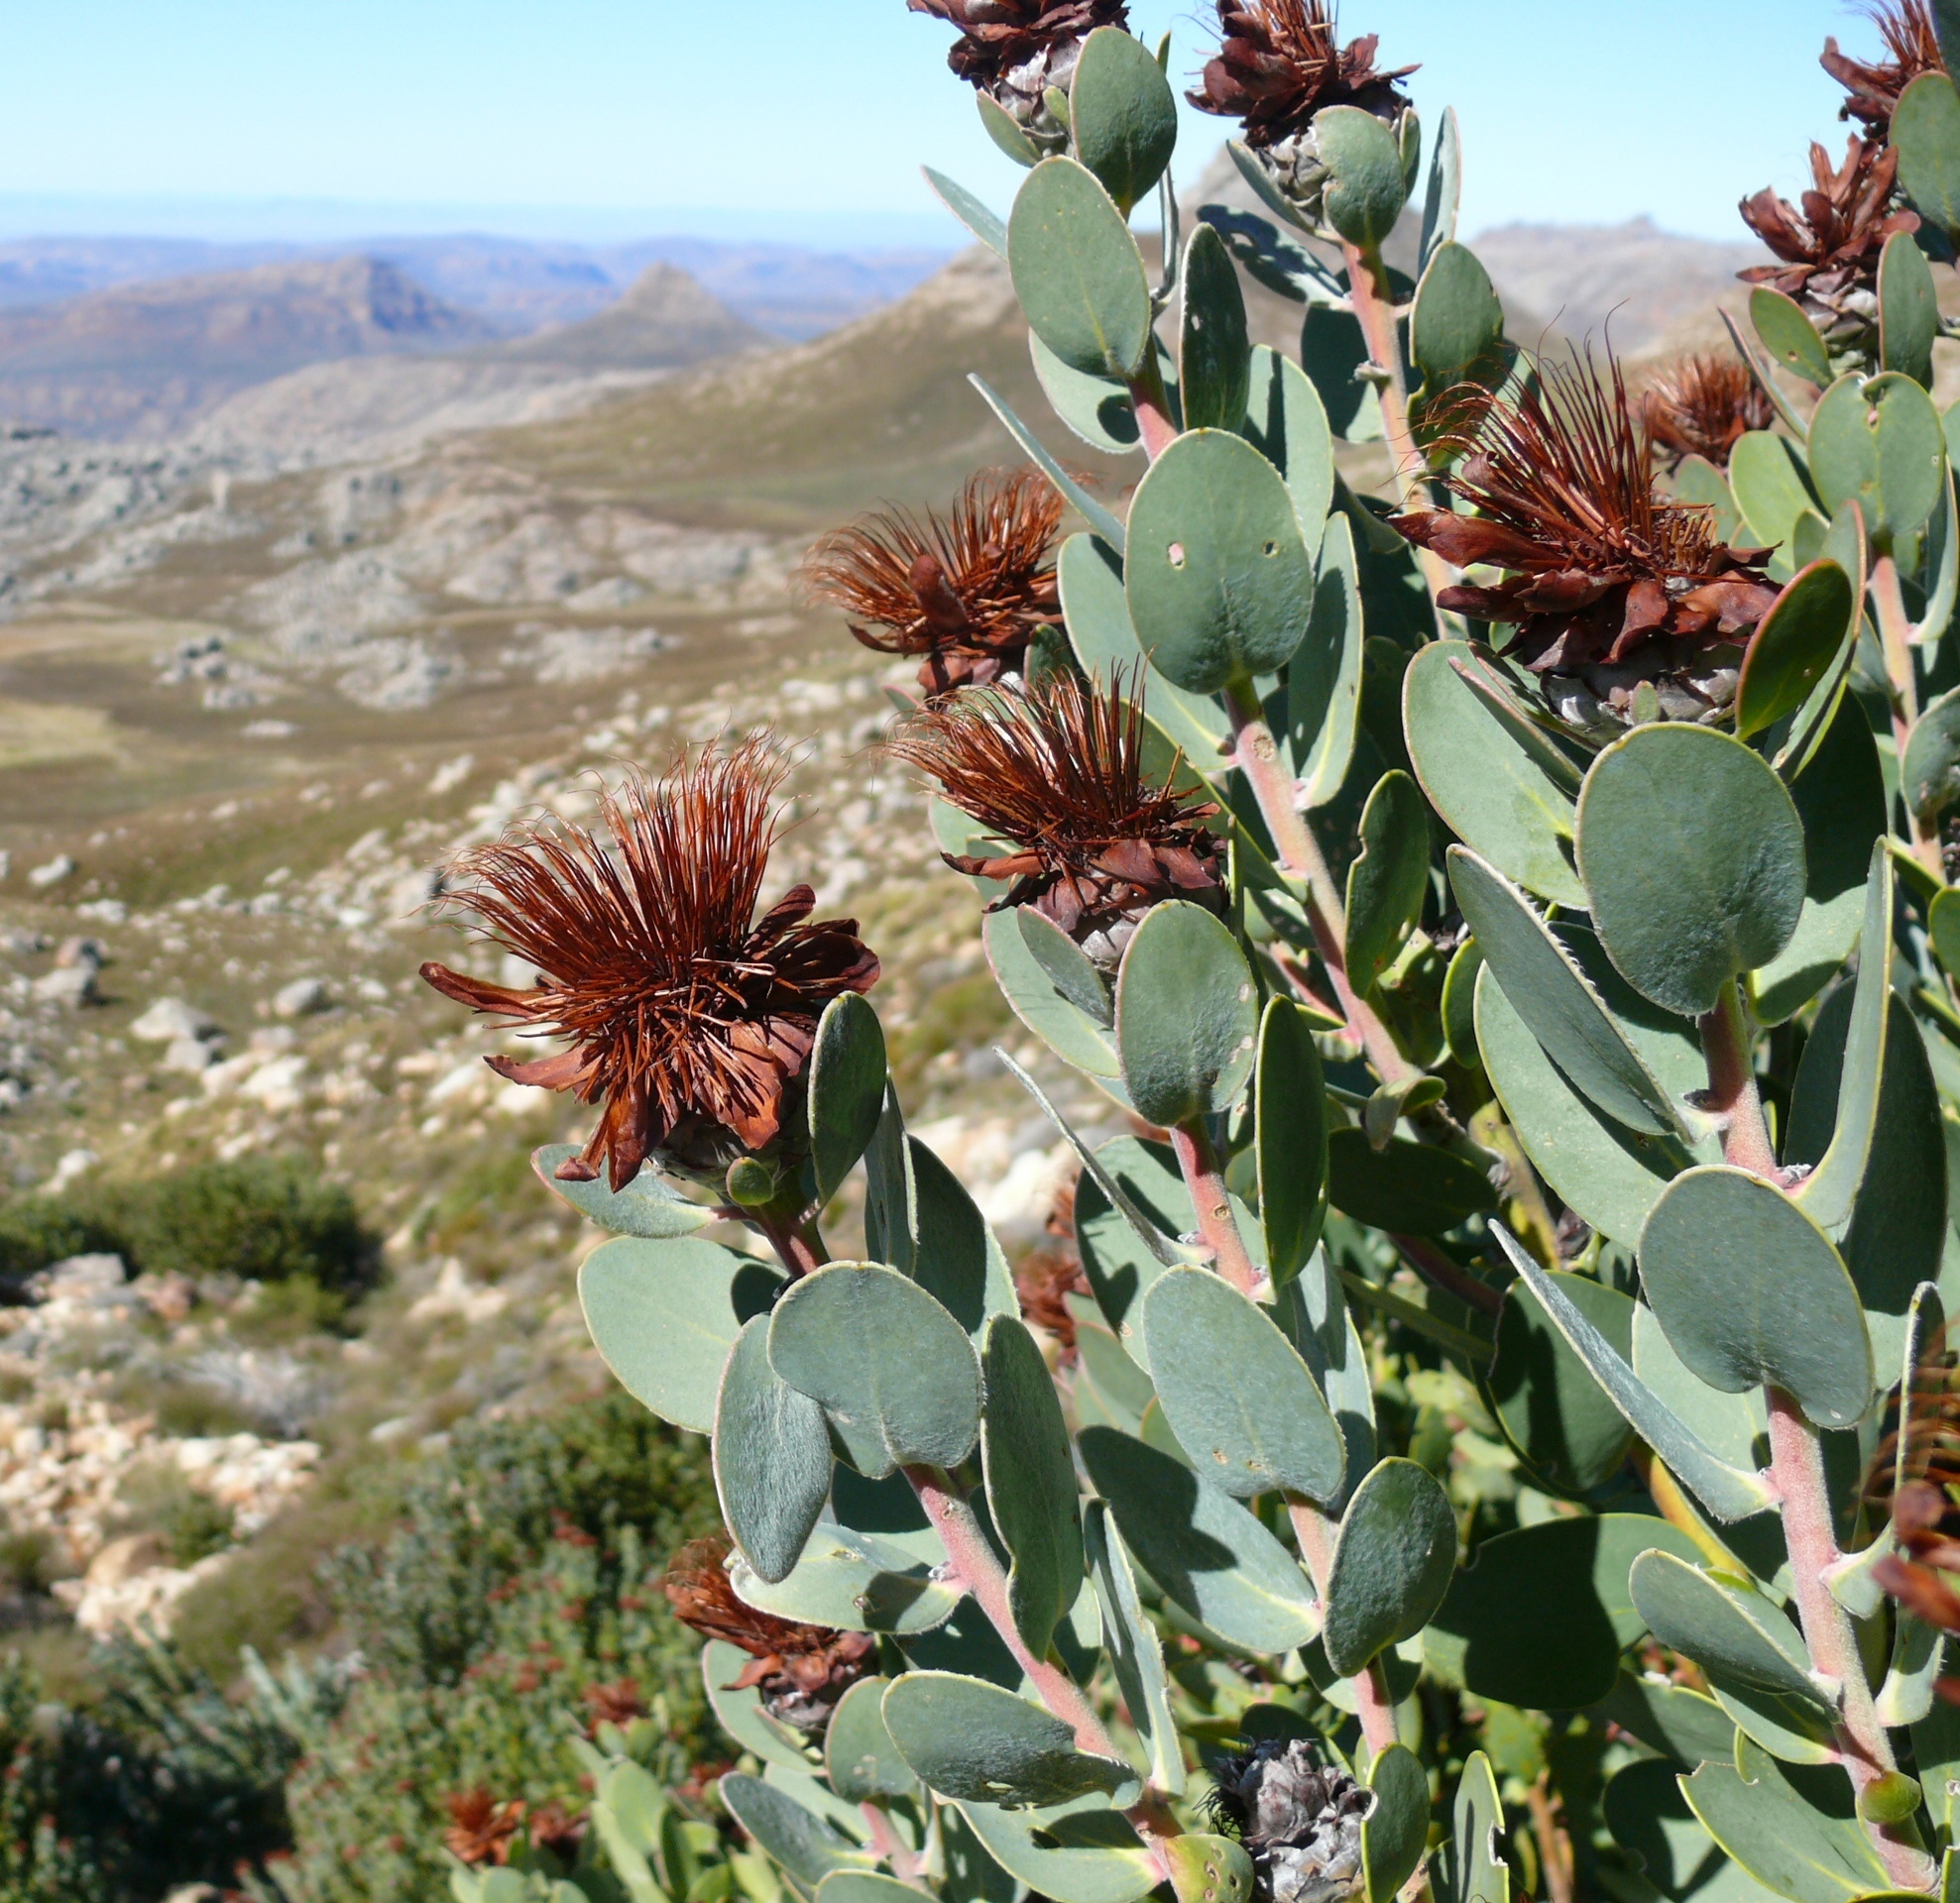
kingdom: Plantae
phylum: Tracheophyta
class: Magnoliopsida
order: Proteales
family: Proteaceae
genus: Protea
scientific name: Protea punctata
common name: Water sugarbush
